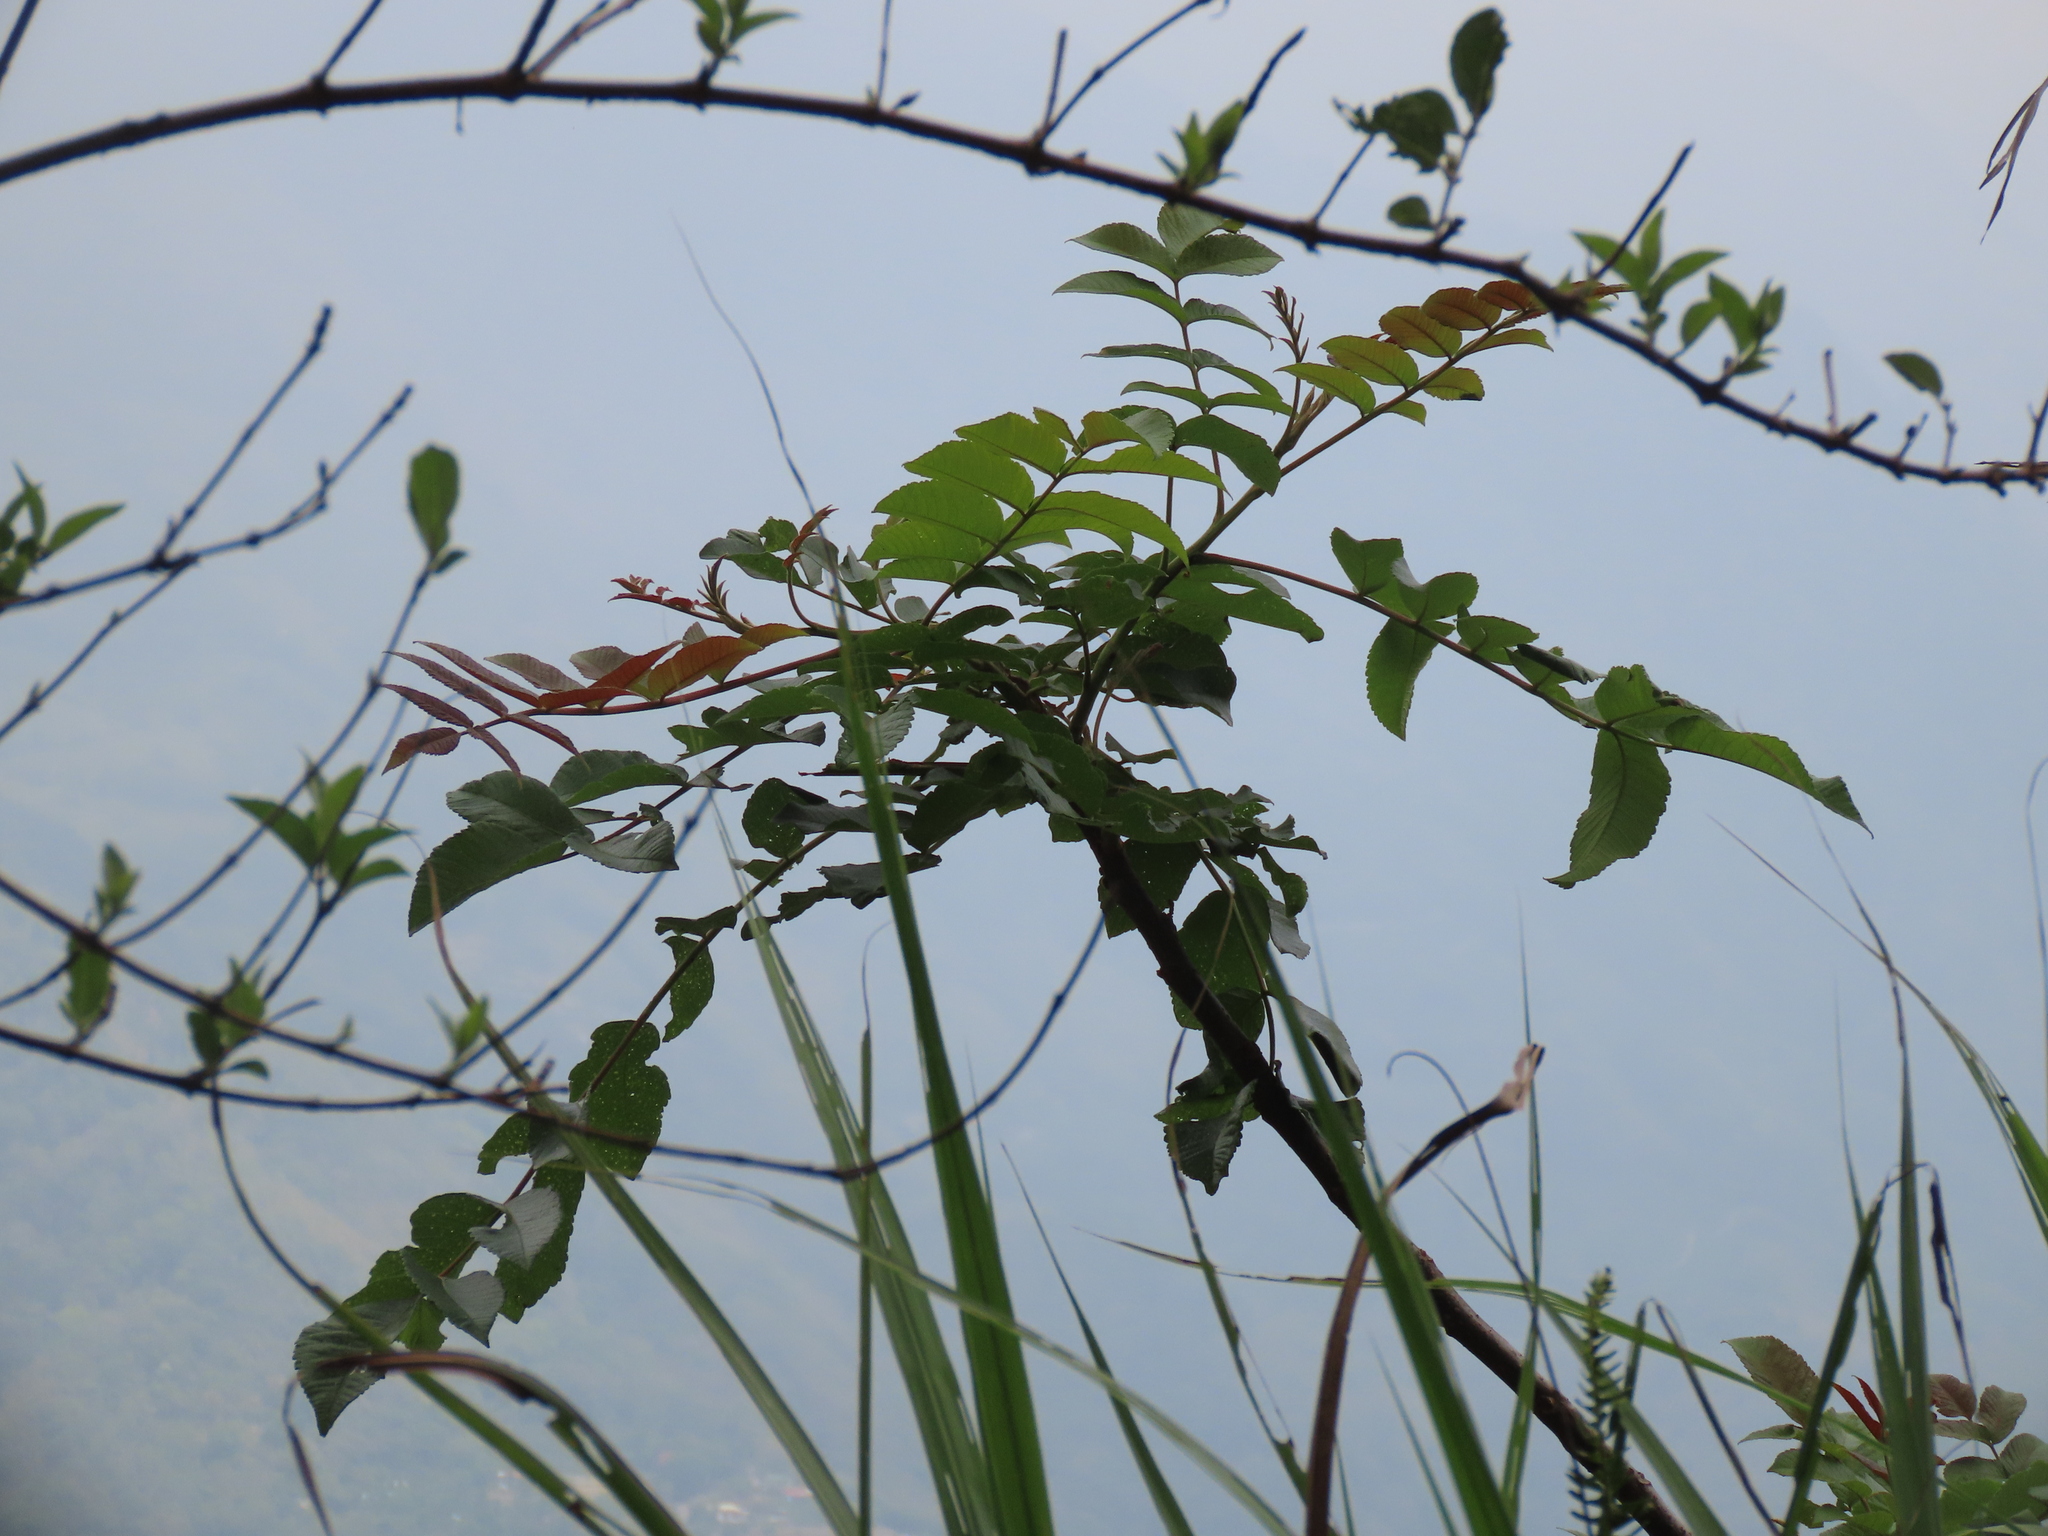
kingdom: Plantae
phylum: Tracheophyta
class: Magnoliopsida
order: Sapindales
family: Anacardiaceae
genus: Rhus
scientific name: Rhus chinensis
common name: Chinese gall
